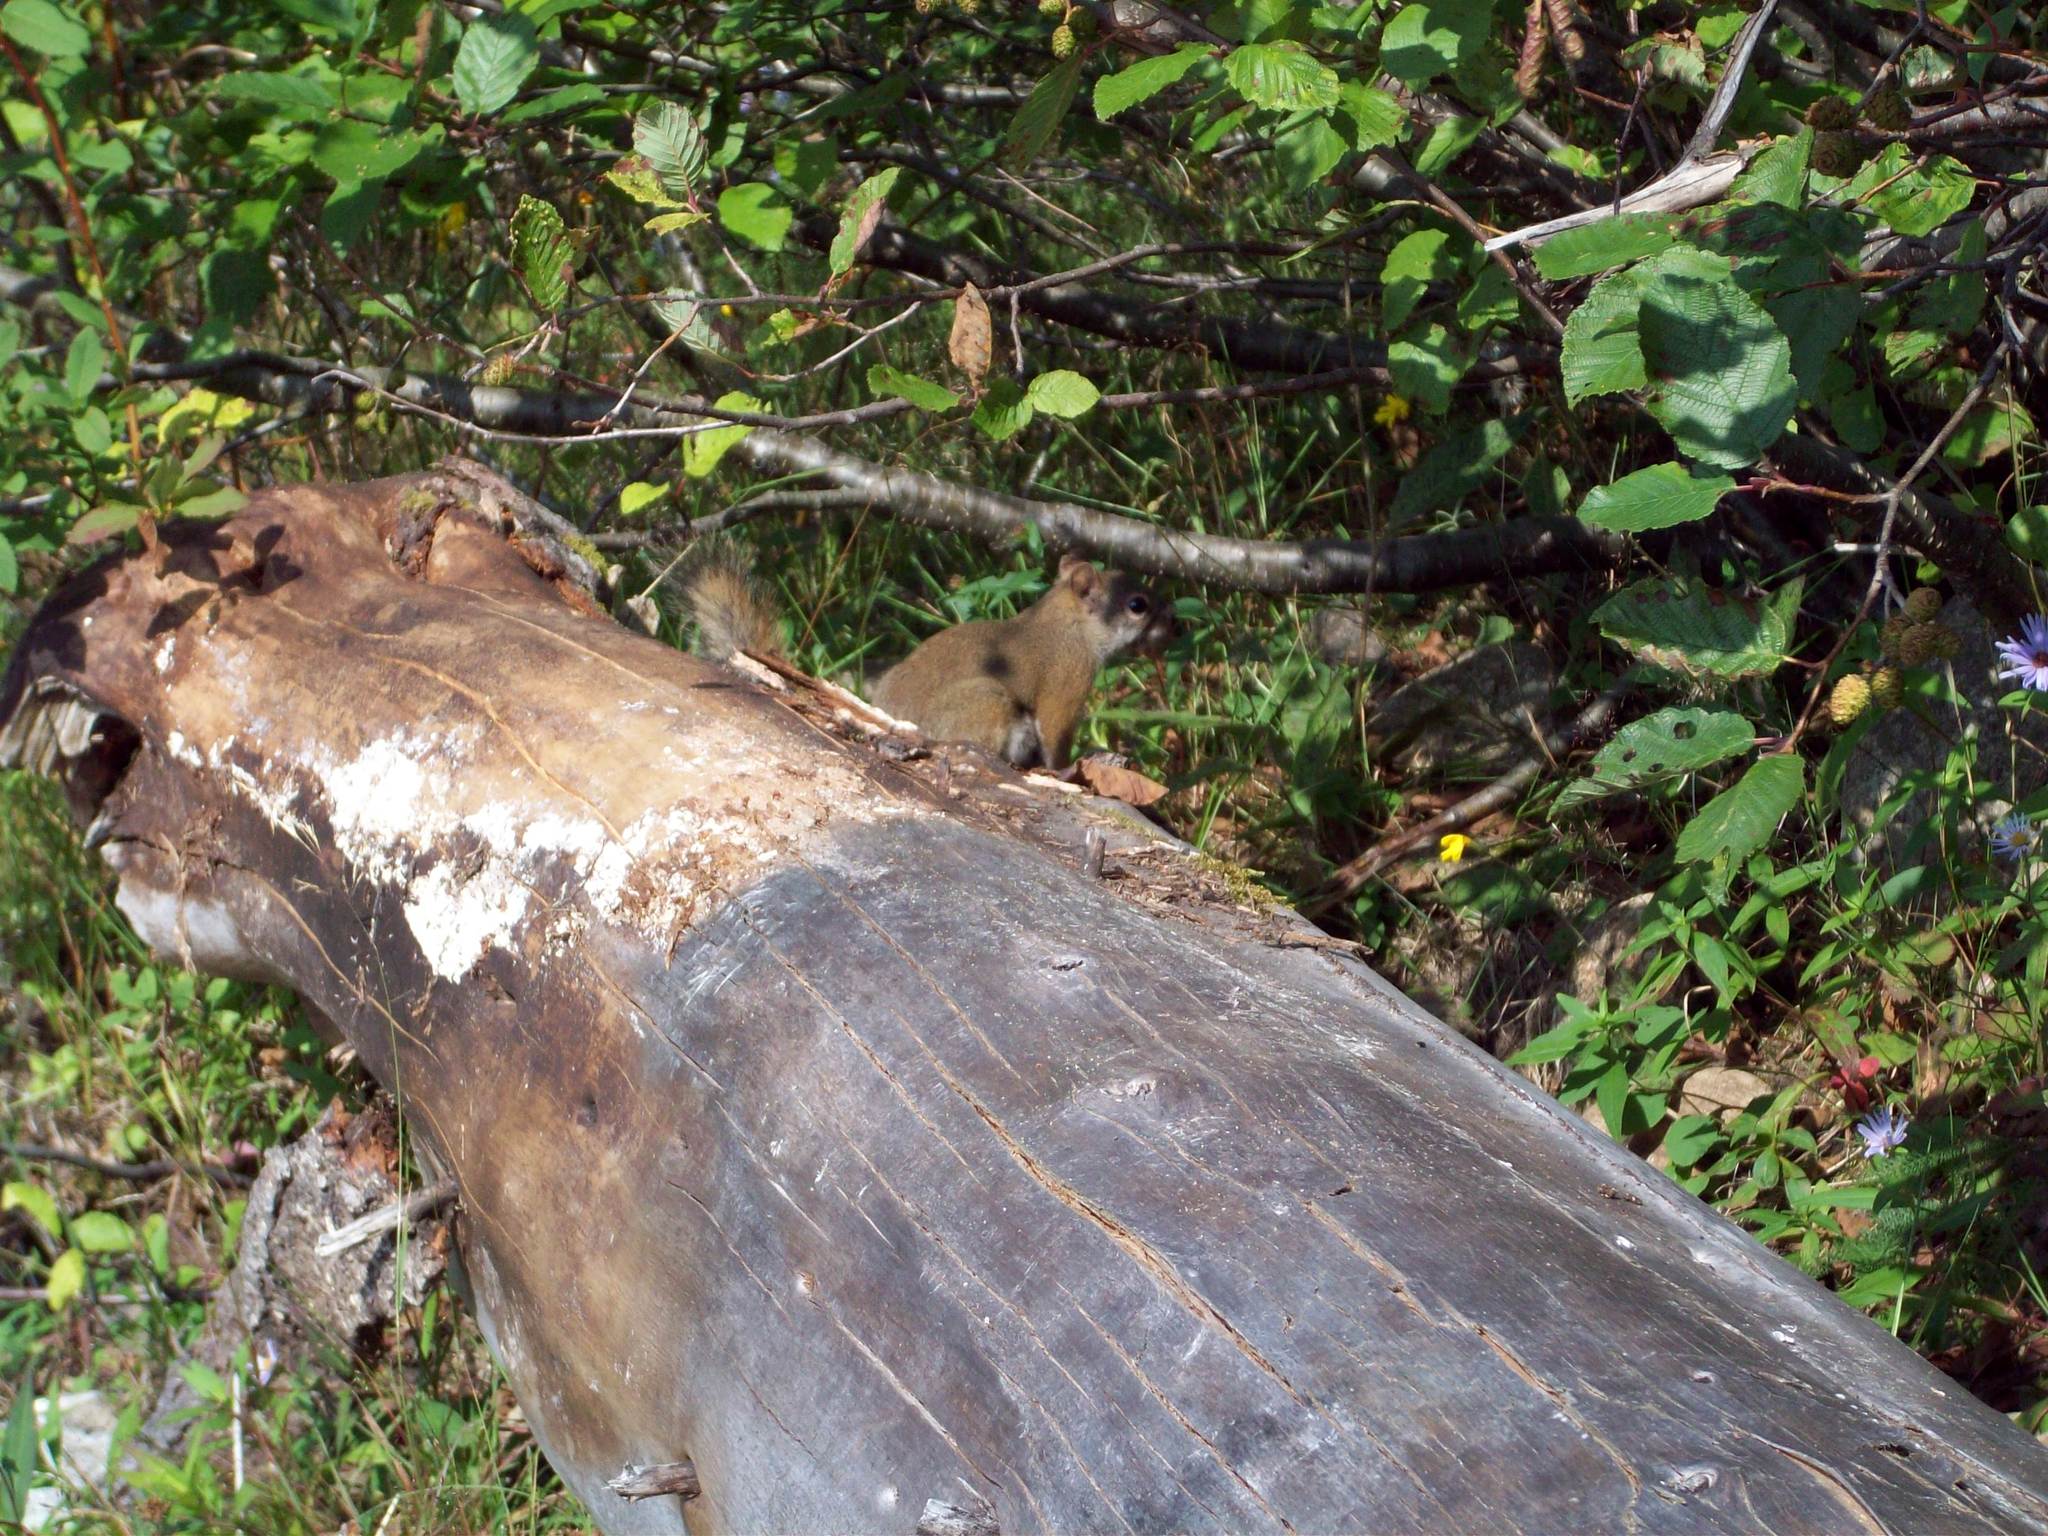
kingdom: Animalia
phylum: Chordata
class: Mammalia
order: Rodentia
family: Sciuridae
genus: Tamiasciurus
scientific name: Tamiasciurus hudsonicus
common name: Red squirrel
